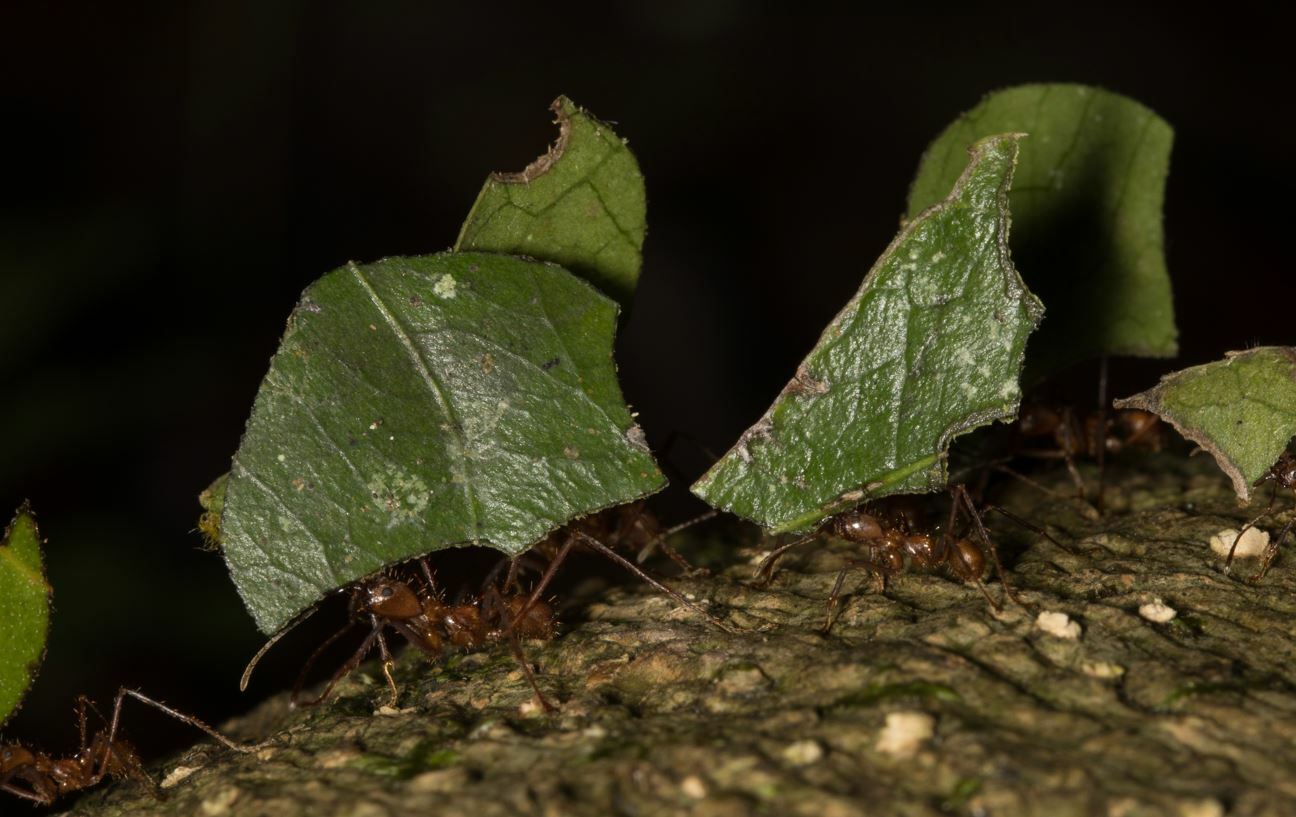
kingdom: Animalia
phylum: Arthropoda
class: Insecta
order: Hymenoptera
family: Formicidae
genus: Atta
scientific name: Atta cephalotes
